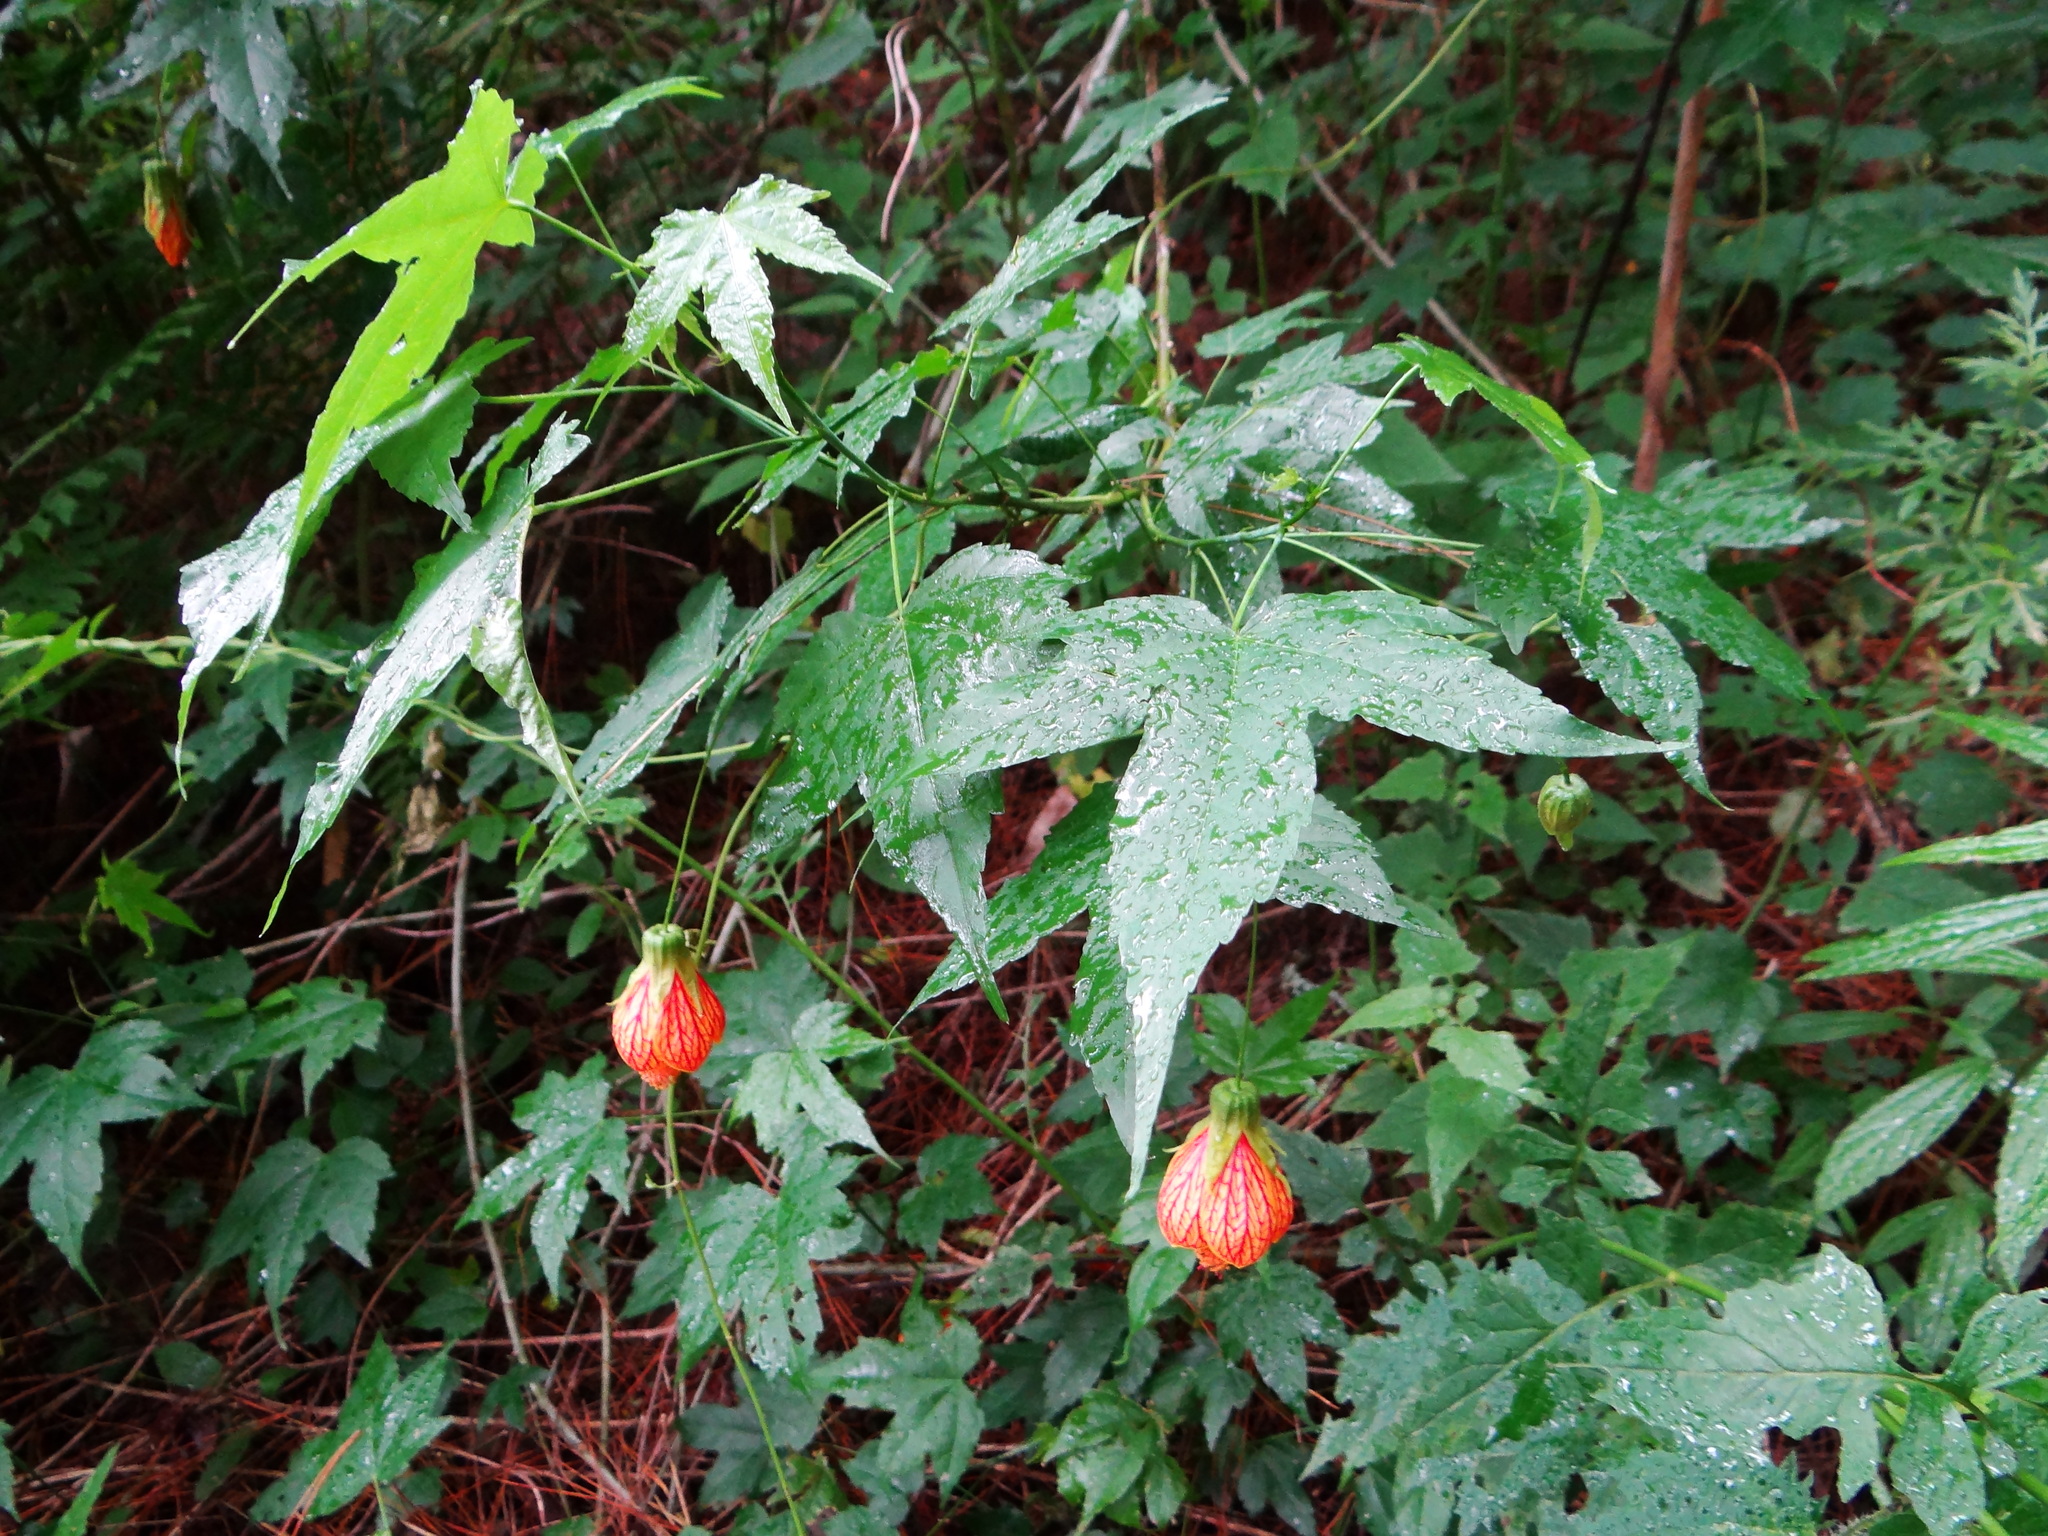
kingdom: Plantae
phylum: Tracheophyta
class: Magnoliopsida
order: Malvales
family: Malvaceae
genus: Callianthe
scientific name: Callianthe picta
